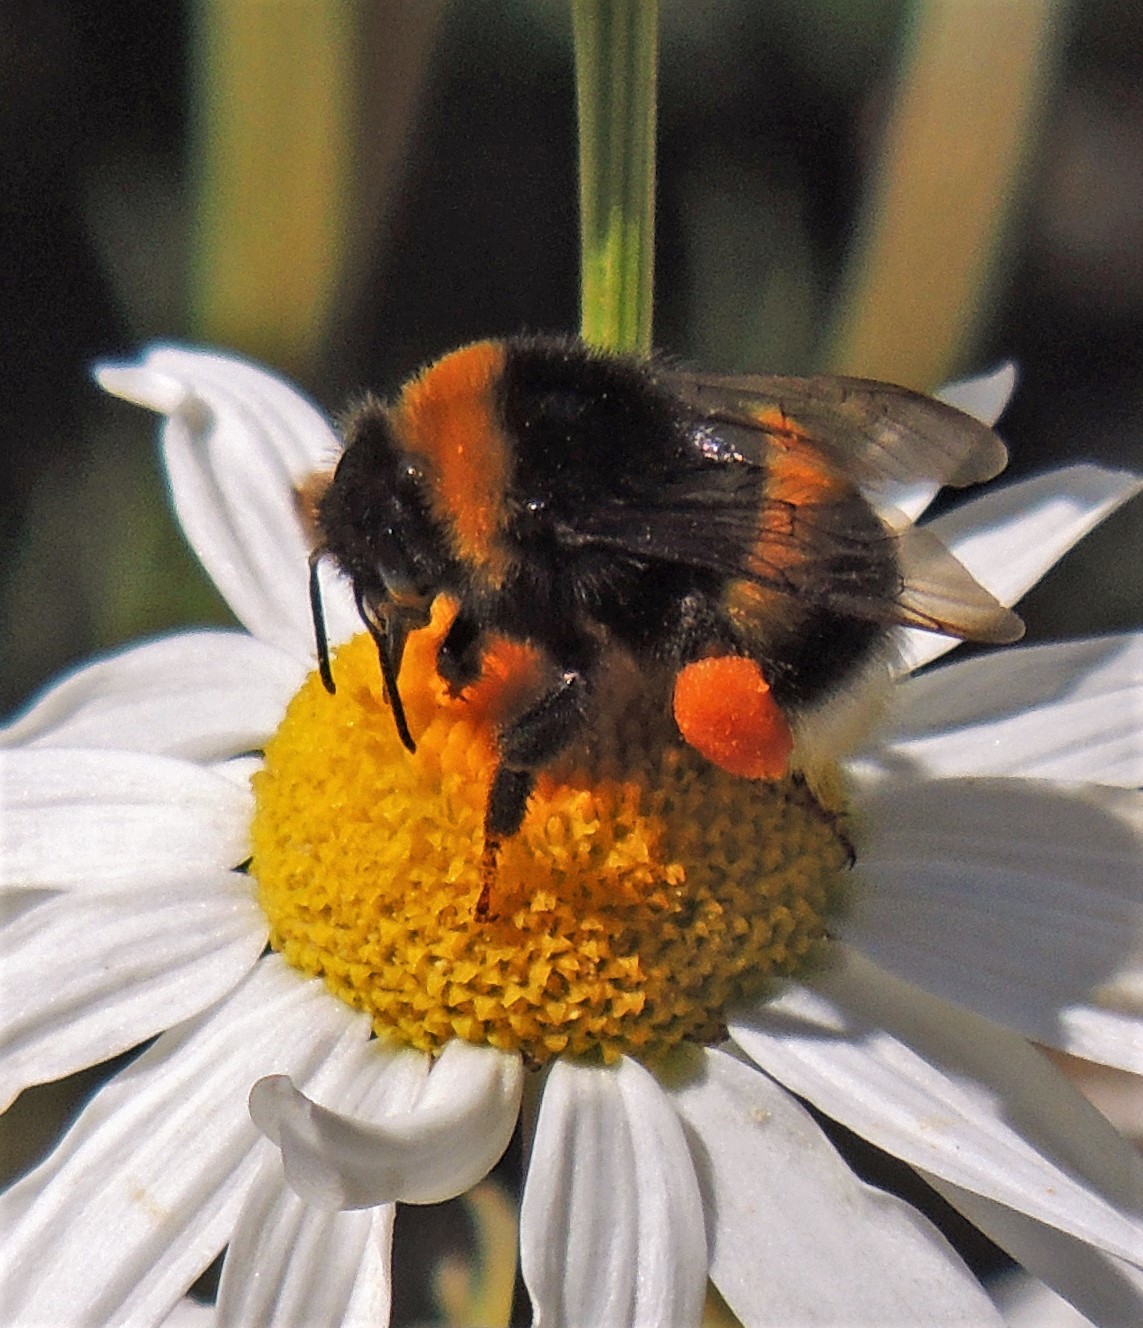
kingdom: Animalia
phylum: Arthropoda
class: Insecta
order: Hymenoptera
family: Apidae
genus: Bombus
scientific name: Bombus terrestris
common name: Buff-tailed bumblebee
